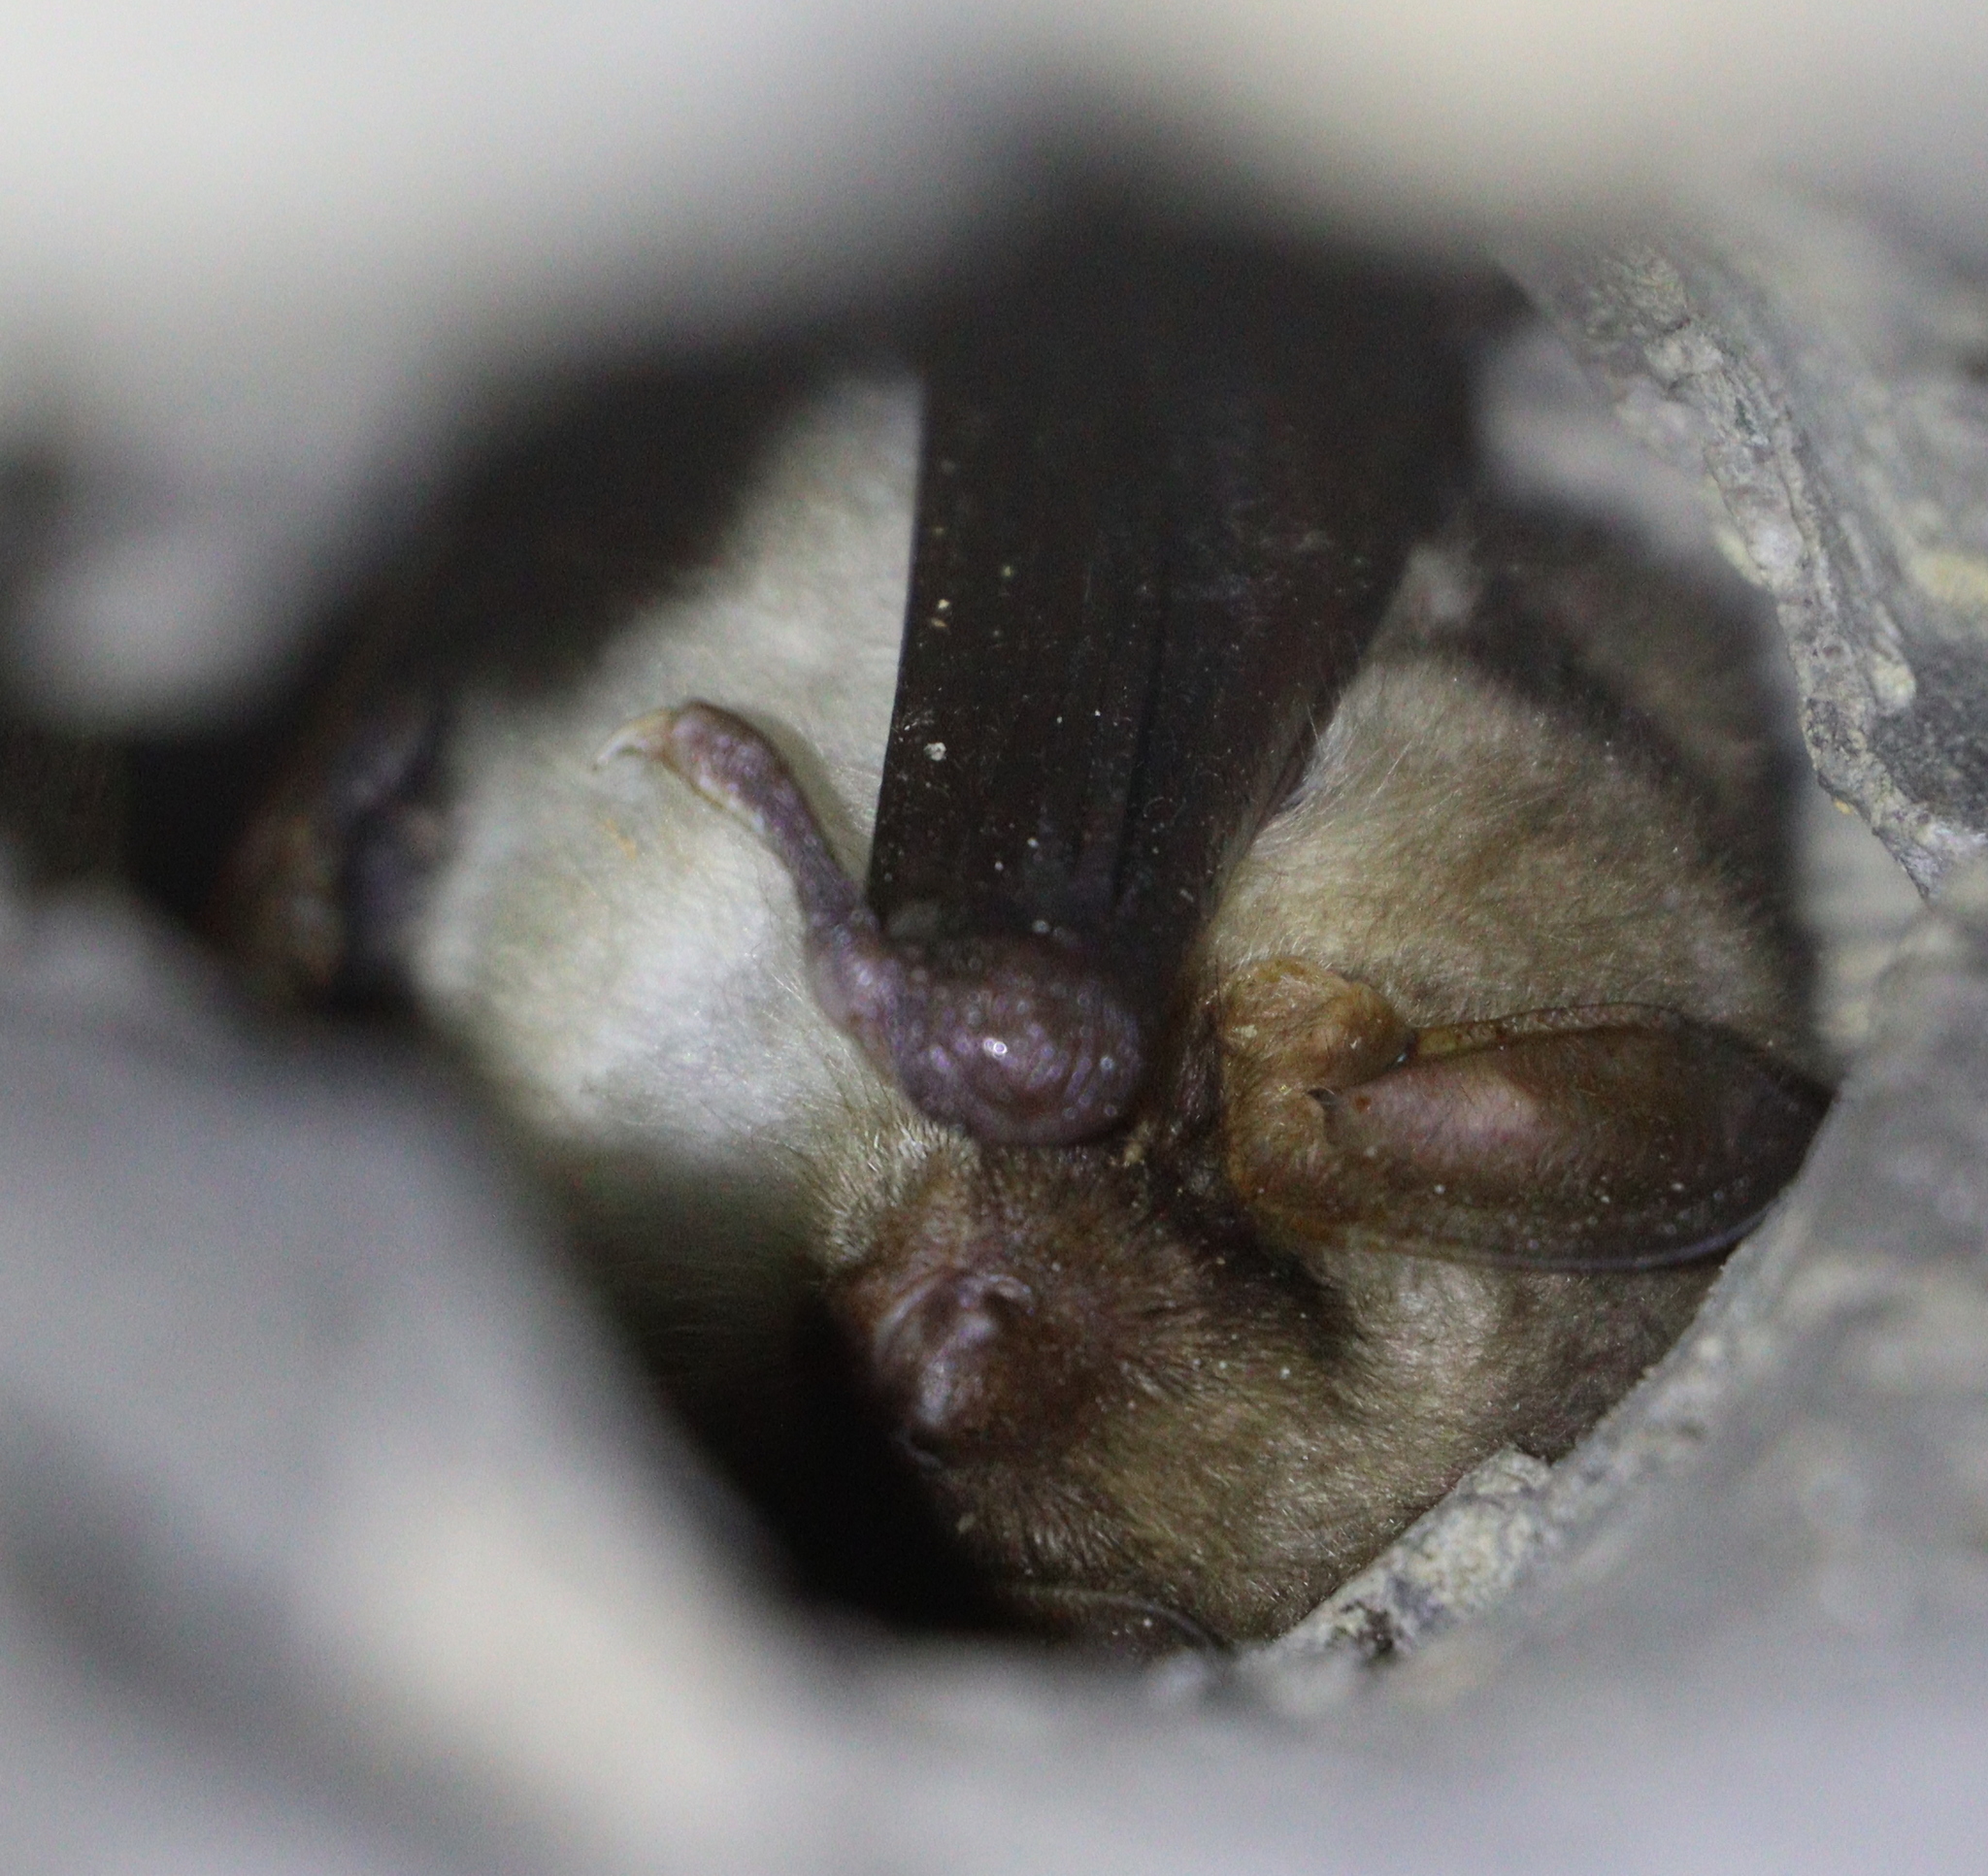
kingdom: Animalia
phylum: Chordata
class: Mammalia
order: Chiroptera
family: Vespertilionidae
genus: Myotis
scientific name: Myotis myotis
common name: Greater mouse-eared bat
